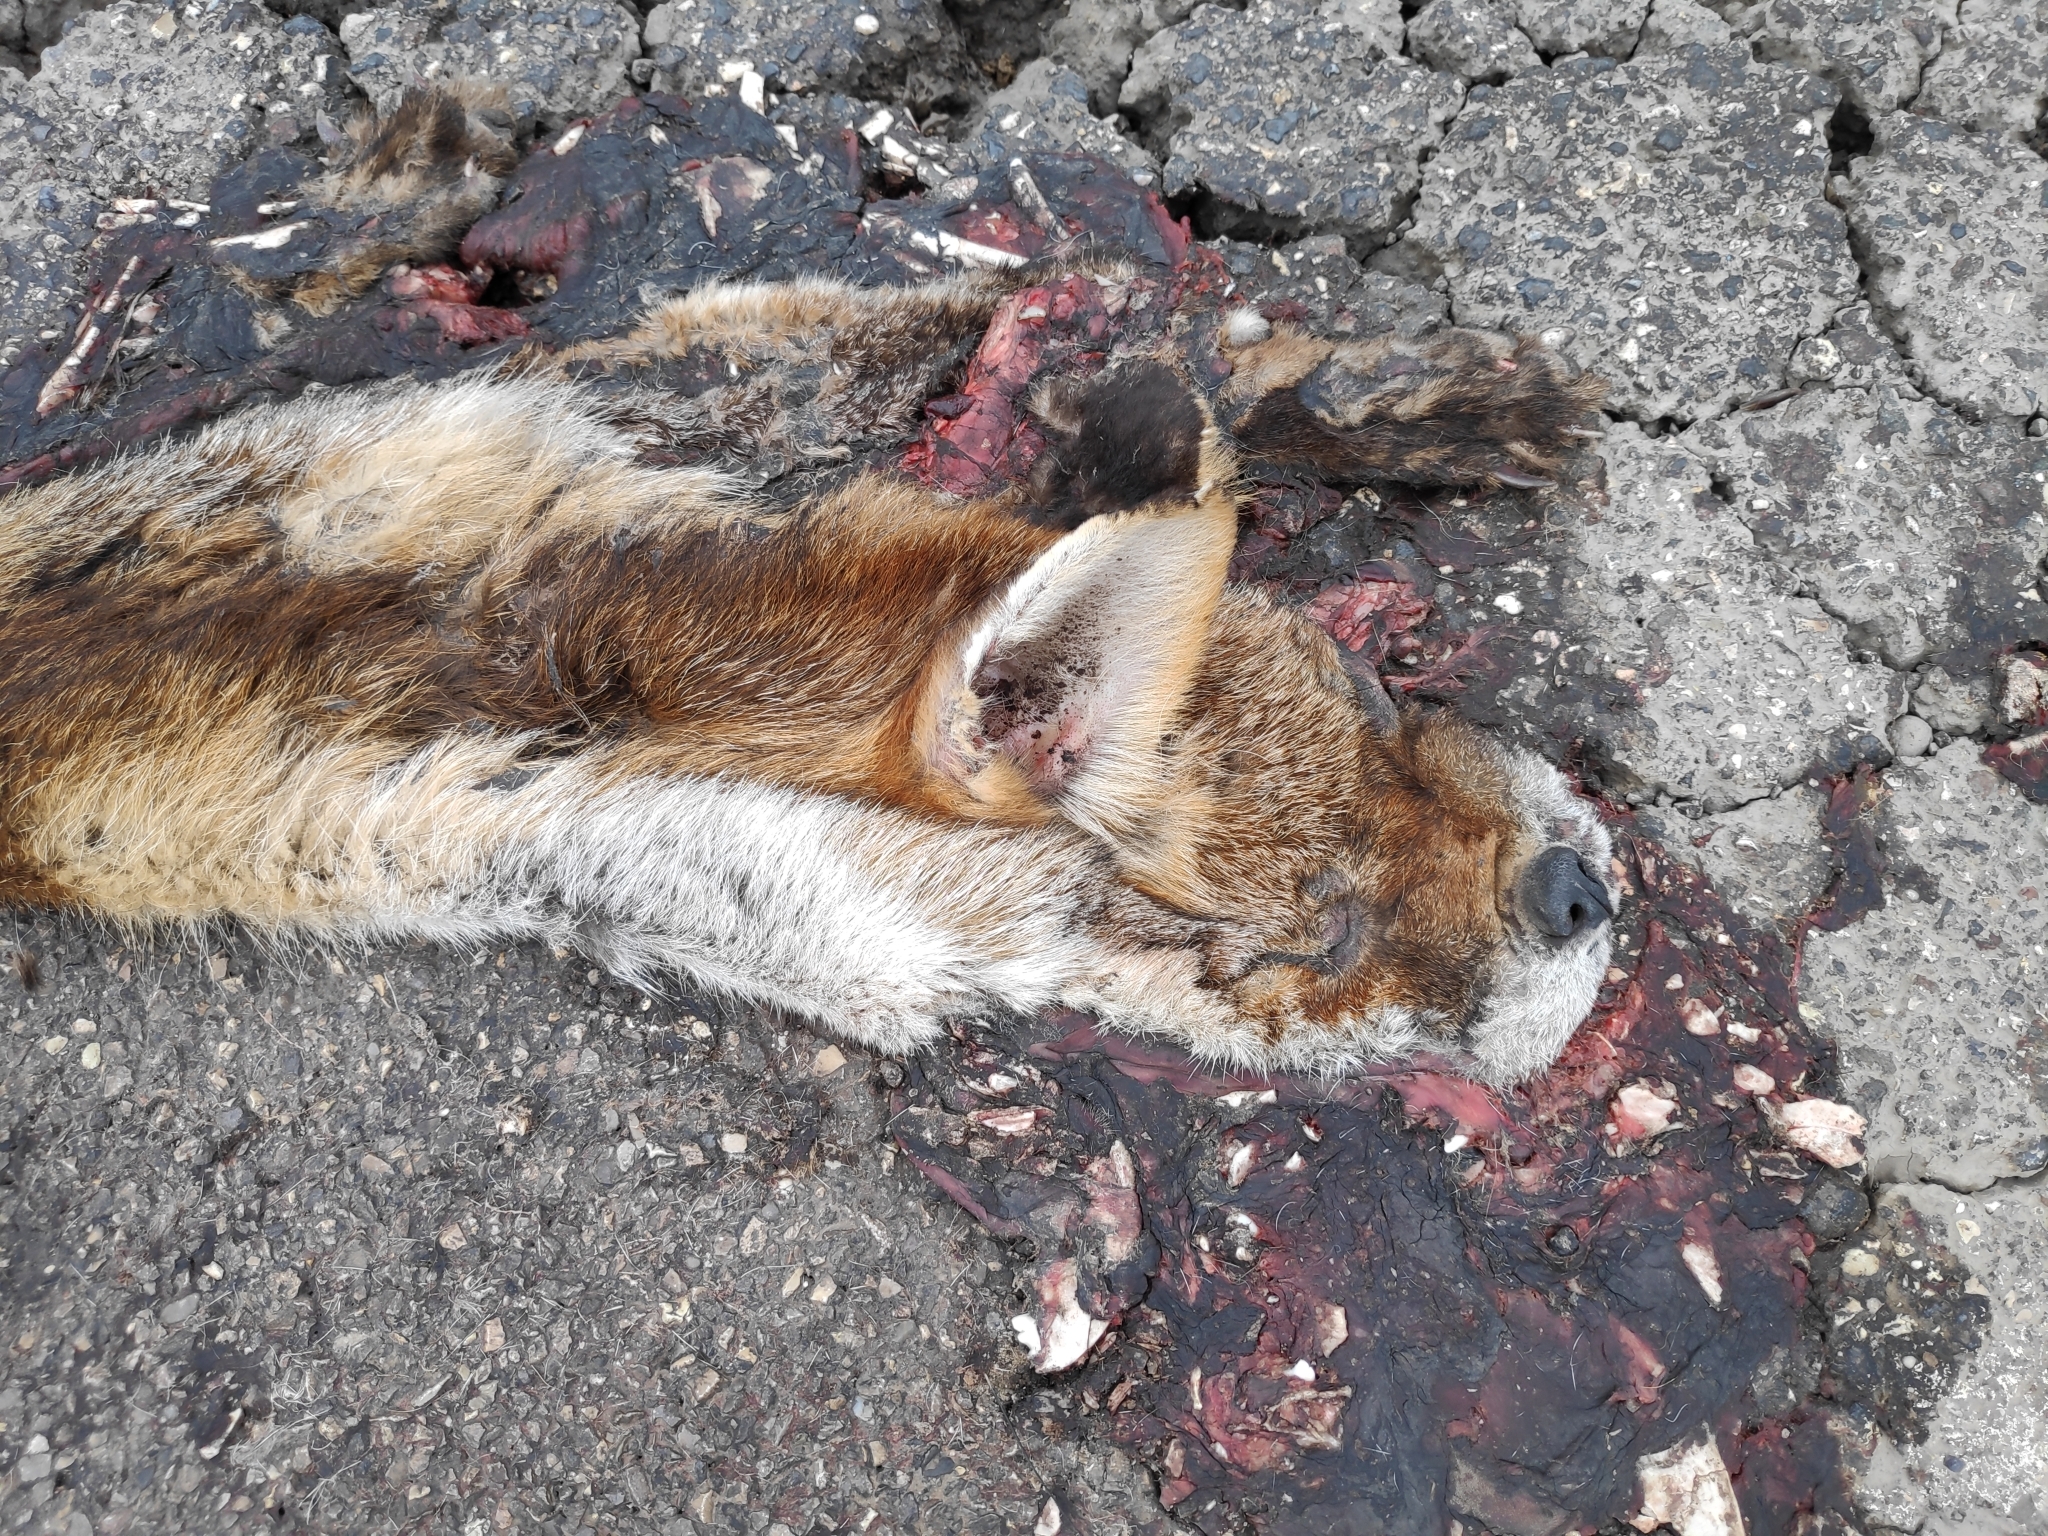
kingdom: Animalia
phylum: Chordata
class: Mammalia
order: Carnivora
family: Canidae
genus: Vulpes
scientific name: Vulpes vulpes
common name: Red fox
